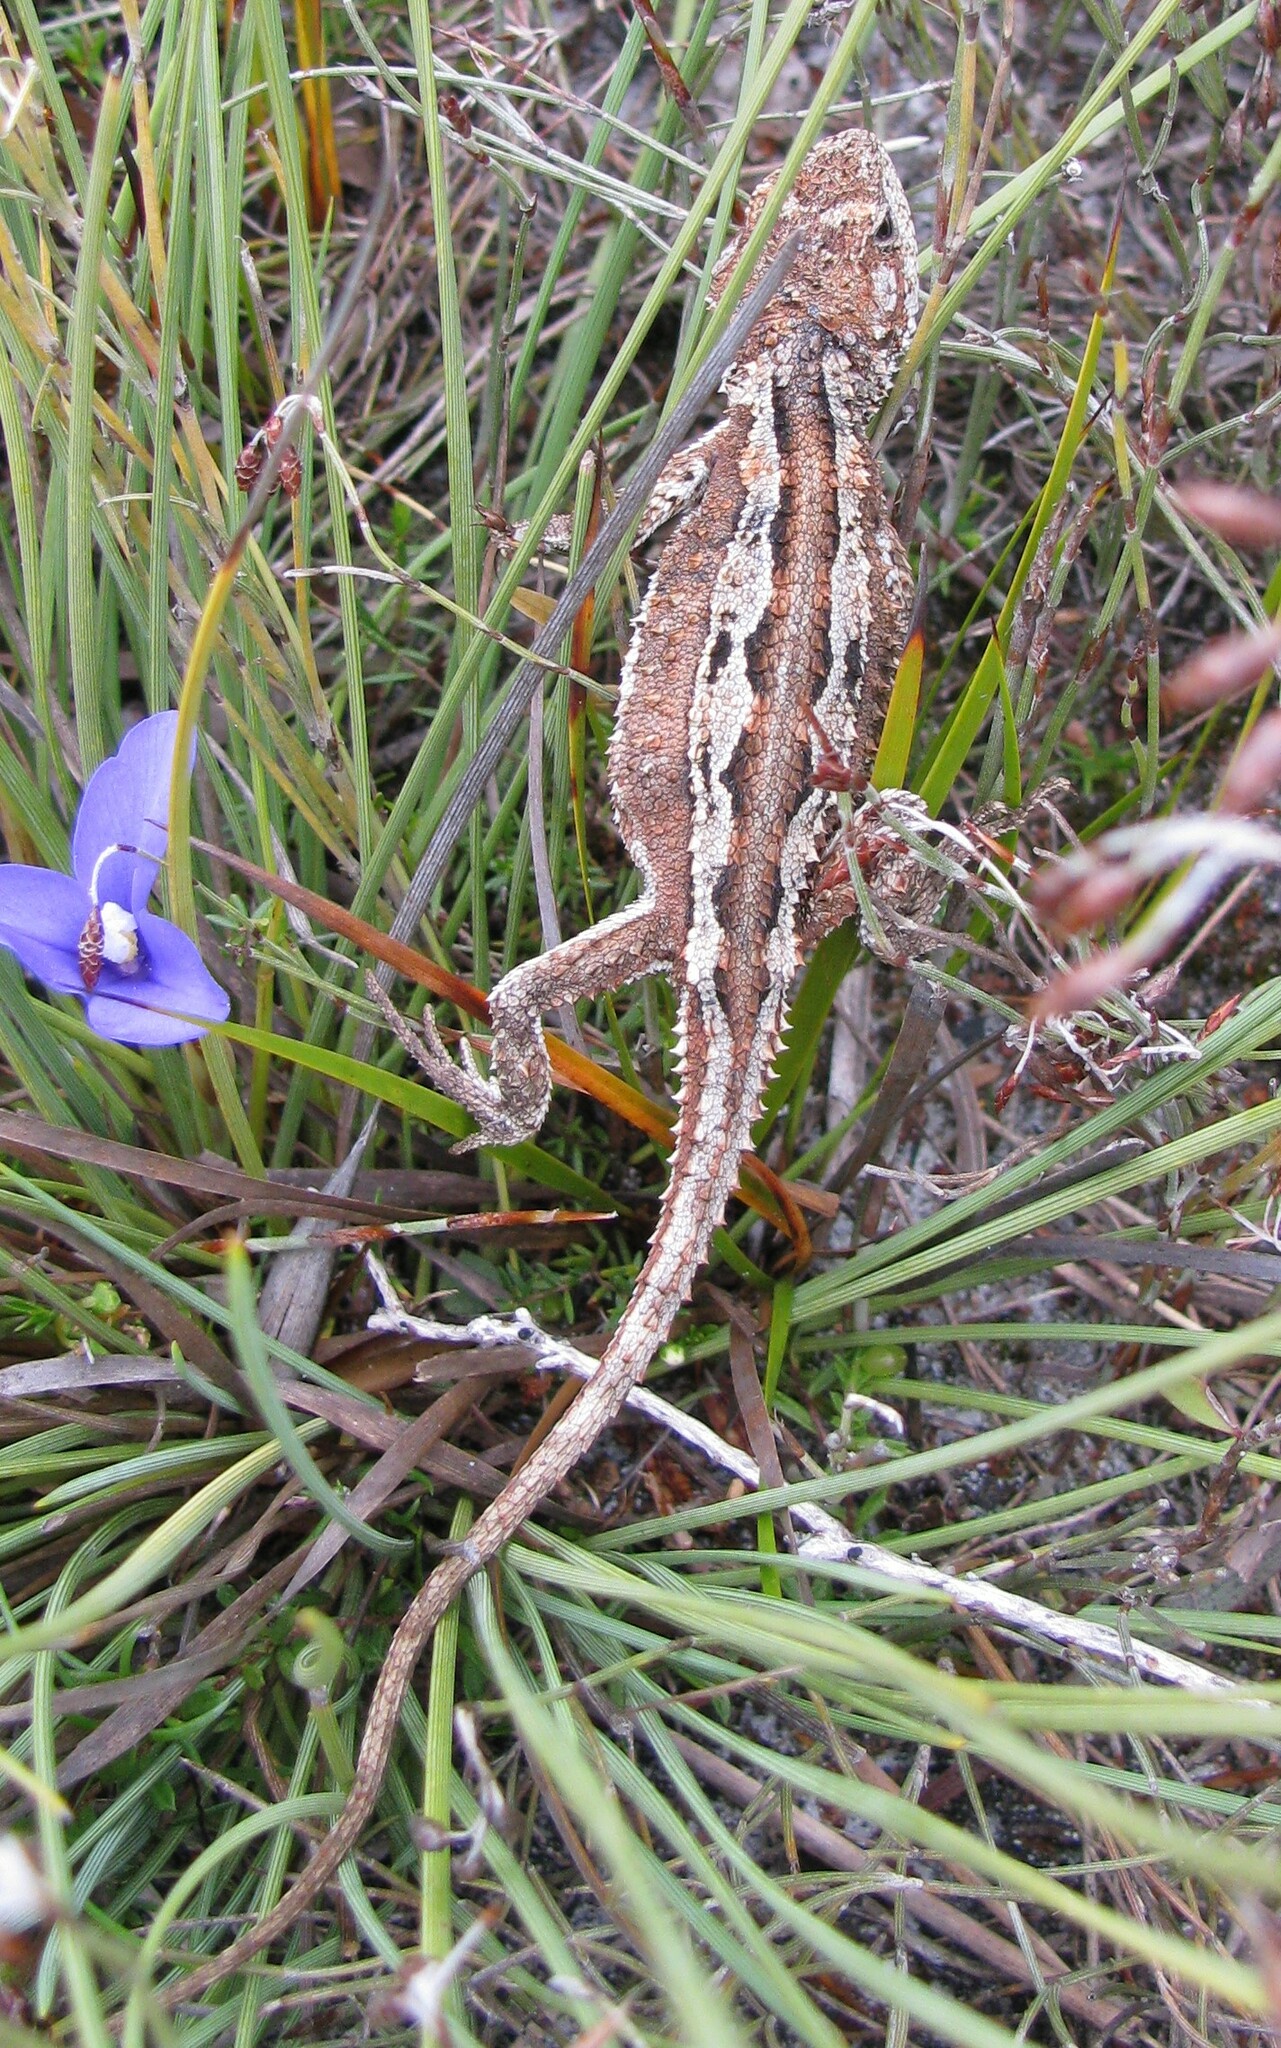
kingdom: Animalia
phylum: Chordata
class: Squamata
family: Agamidae
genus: Rankinia
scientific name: Rankinia diemensis
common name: Mountain dragon
